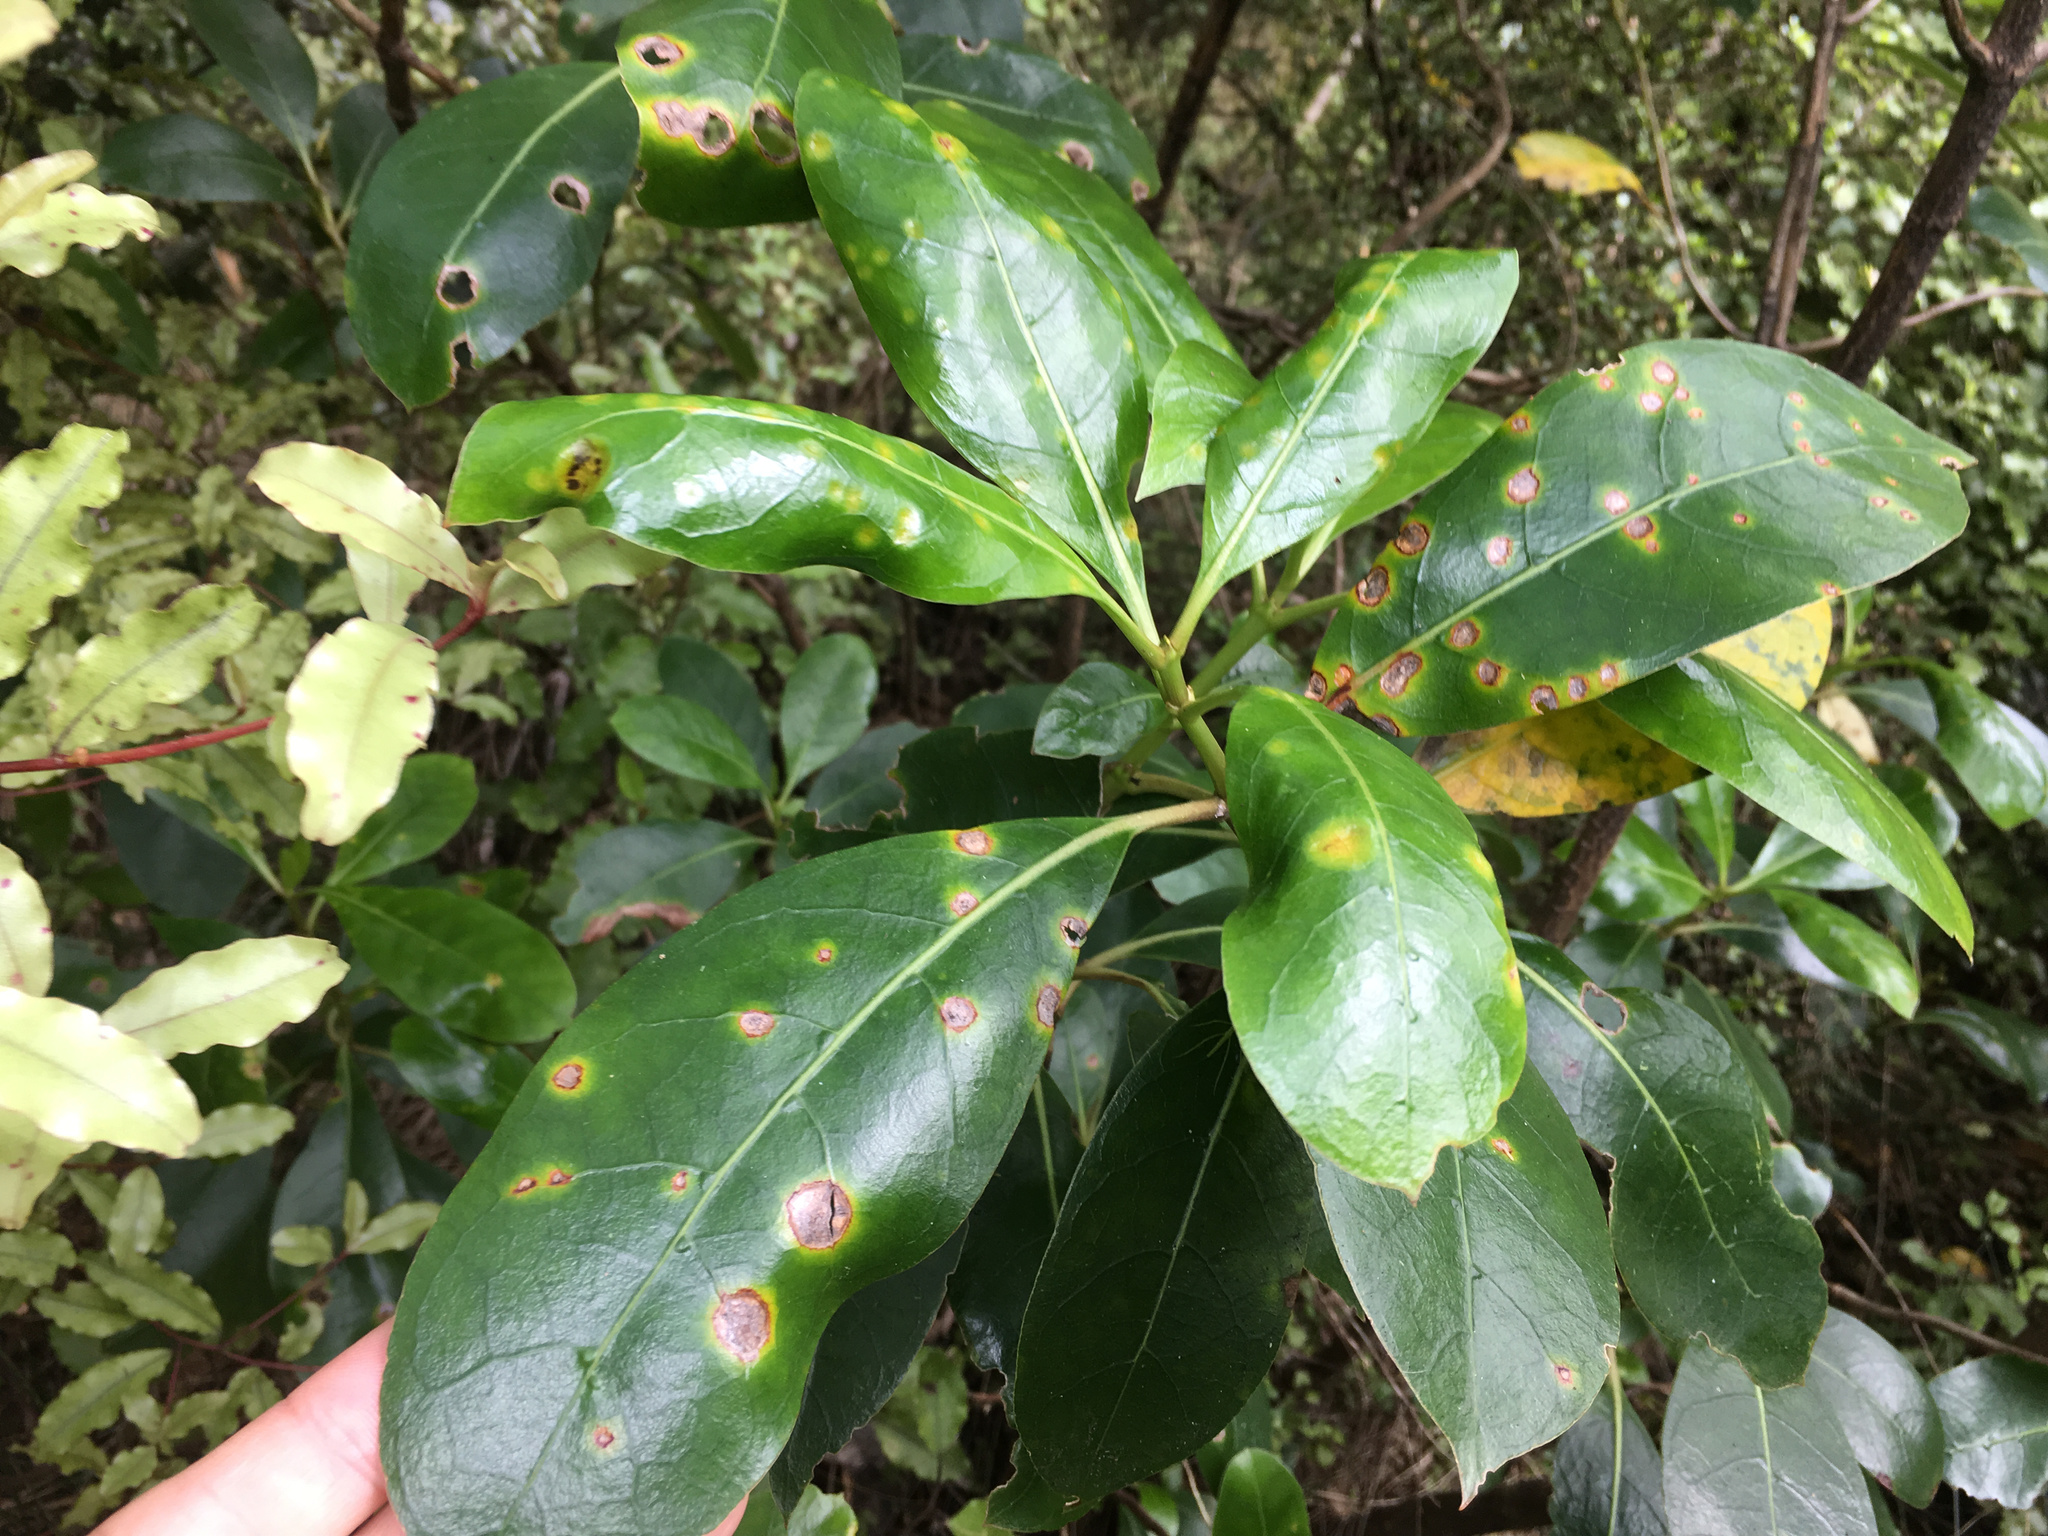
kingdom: Fungi
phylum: Basidiomycota
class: Pucciniomycetes
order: Pucciniales
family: Pucciniaceae
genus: Puccinia
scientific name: Puccinia coprosmae
